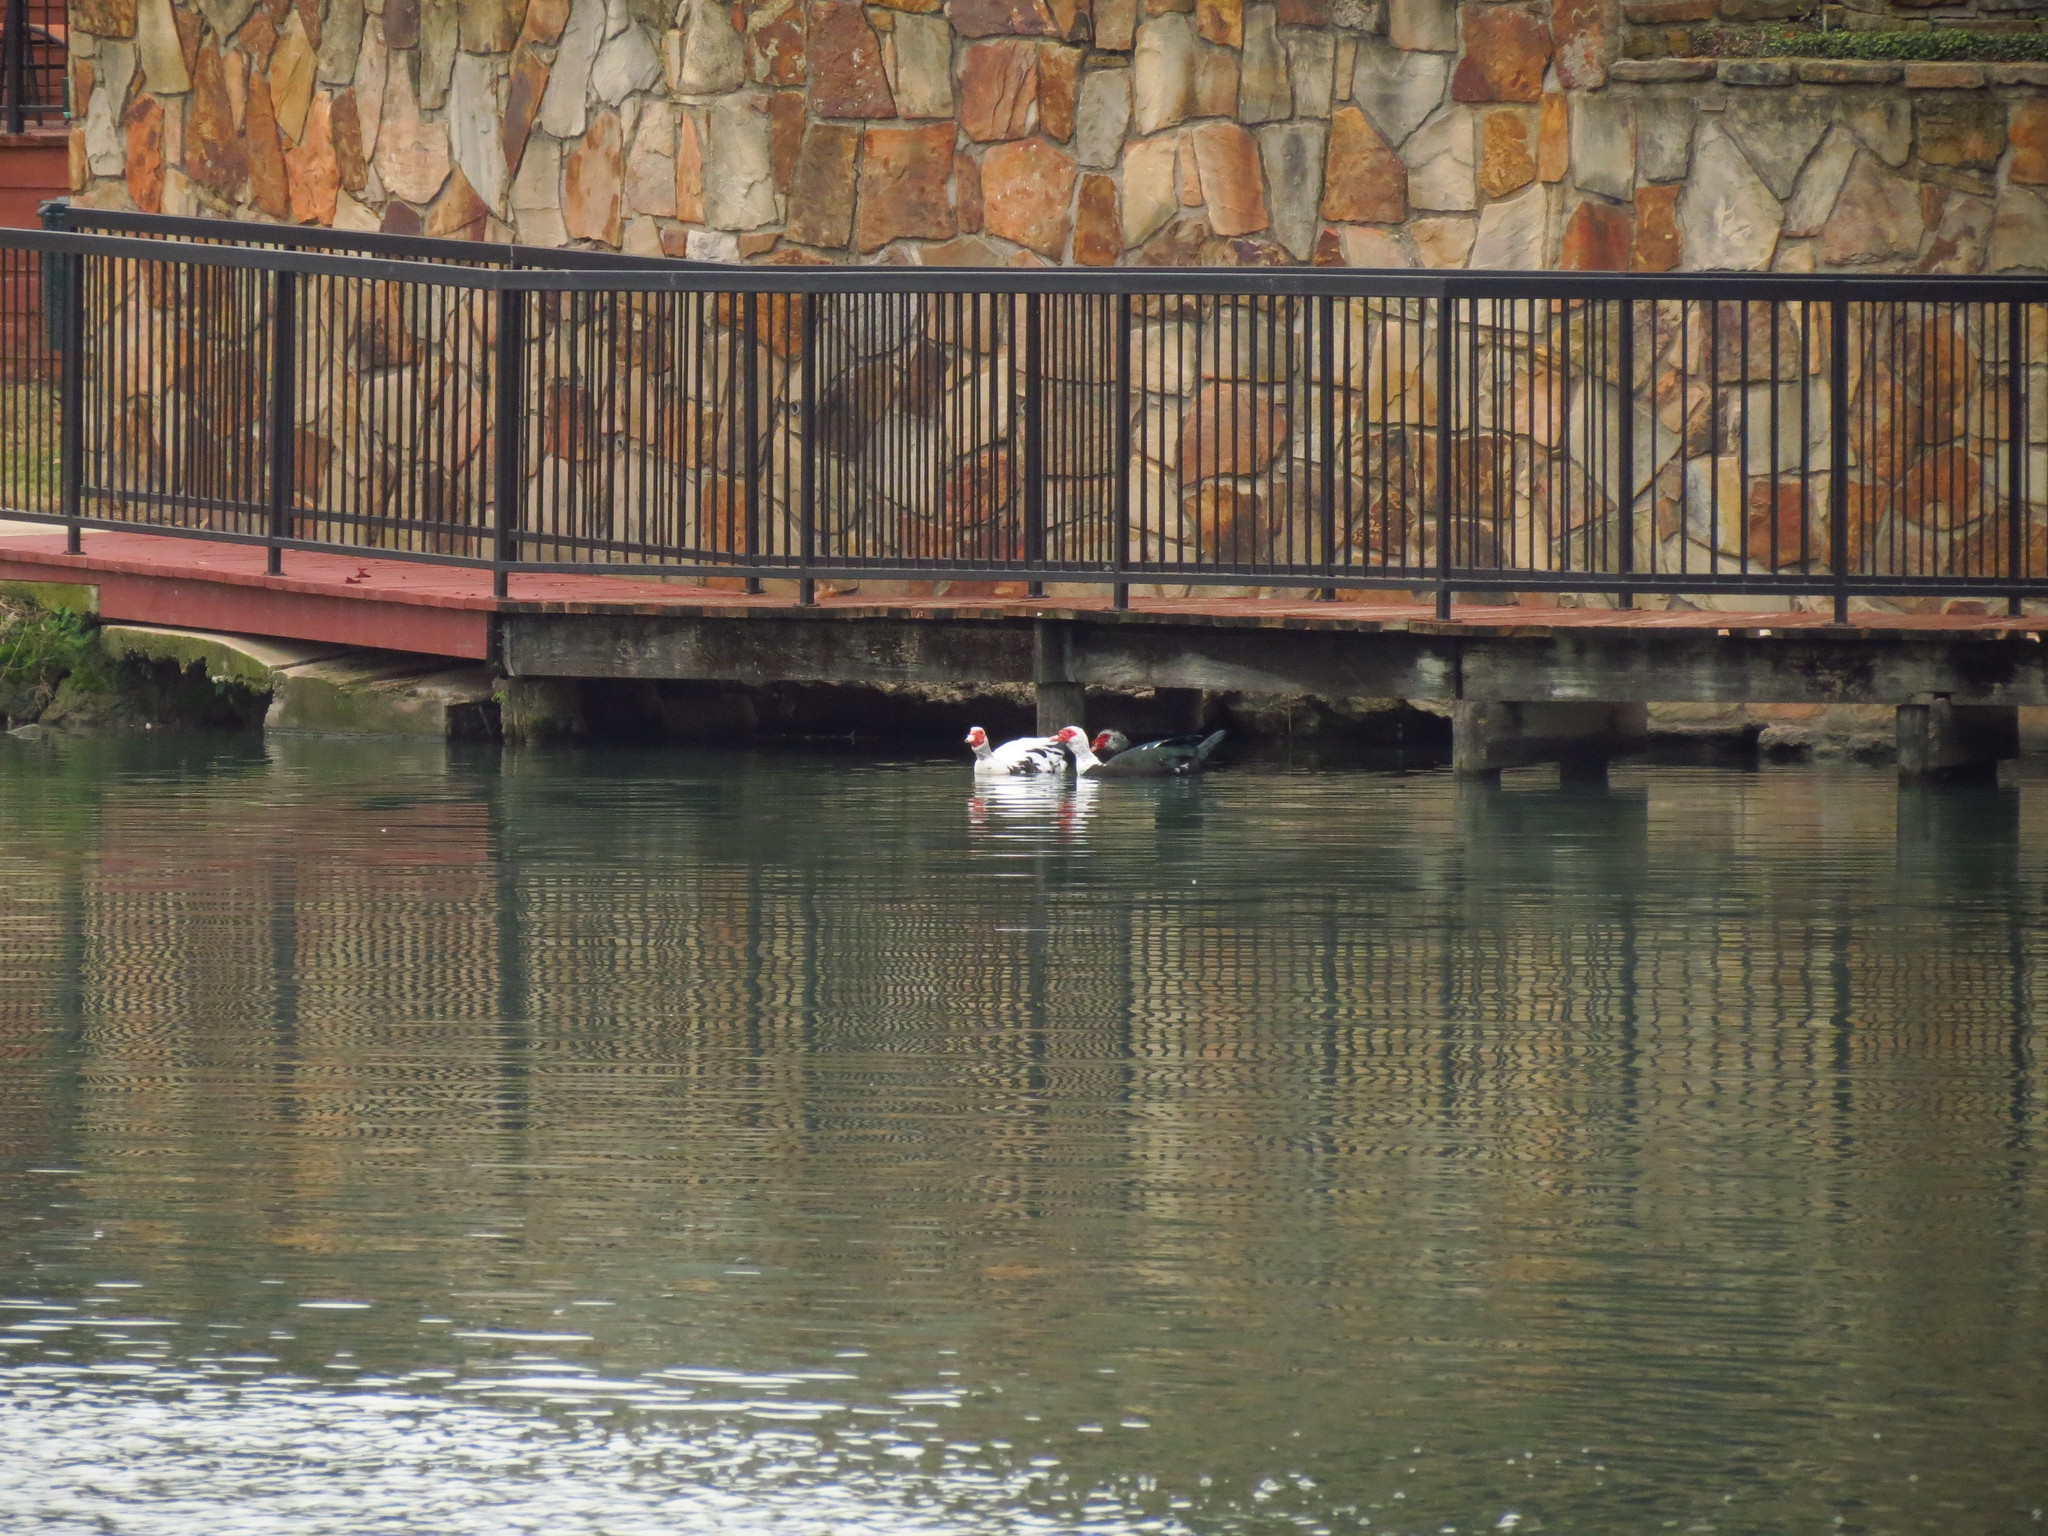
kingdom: Animalia
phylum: Chordata
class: Aves
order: Anseriformes
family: Anatidae
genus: Cairina
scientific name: Cairina moschata
